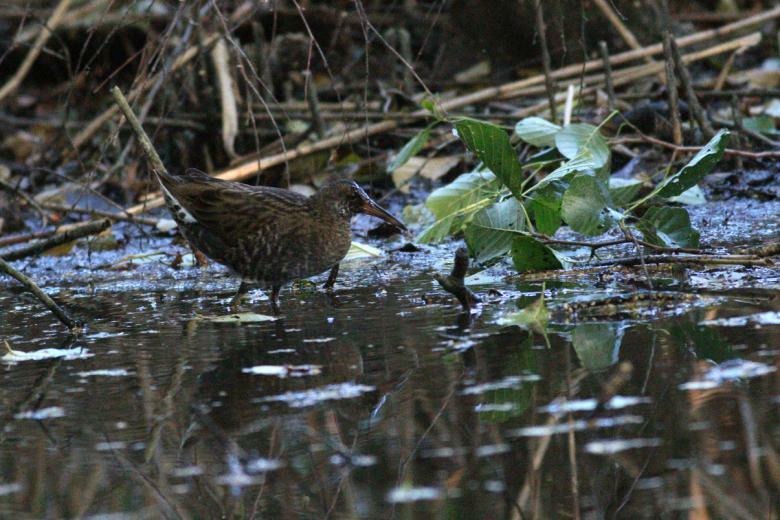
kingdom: Animalia
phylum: Chordata
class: Aves
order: Gruiformes
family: Rallidae
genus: Rallus
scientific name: Rallus aquaticus
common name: Water rail
